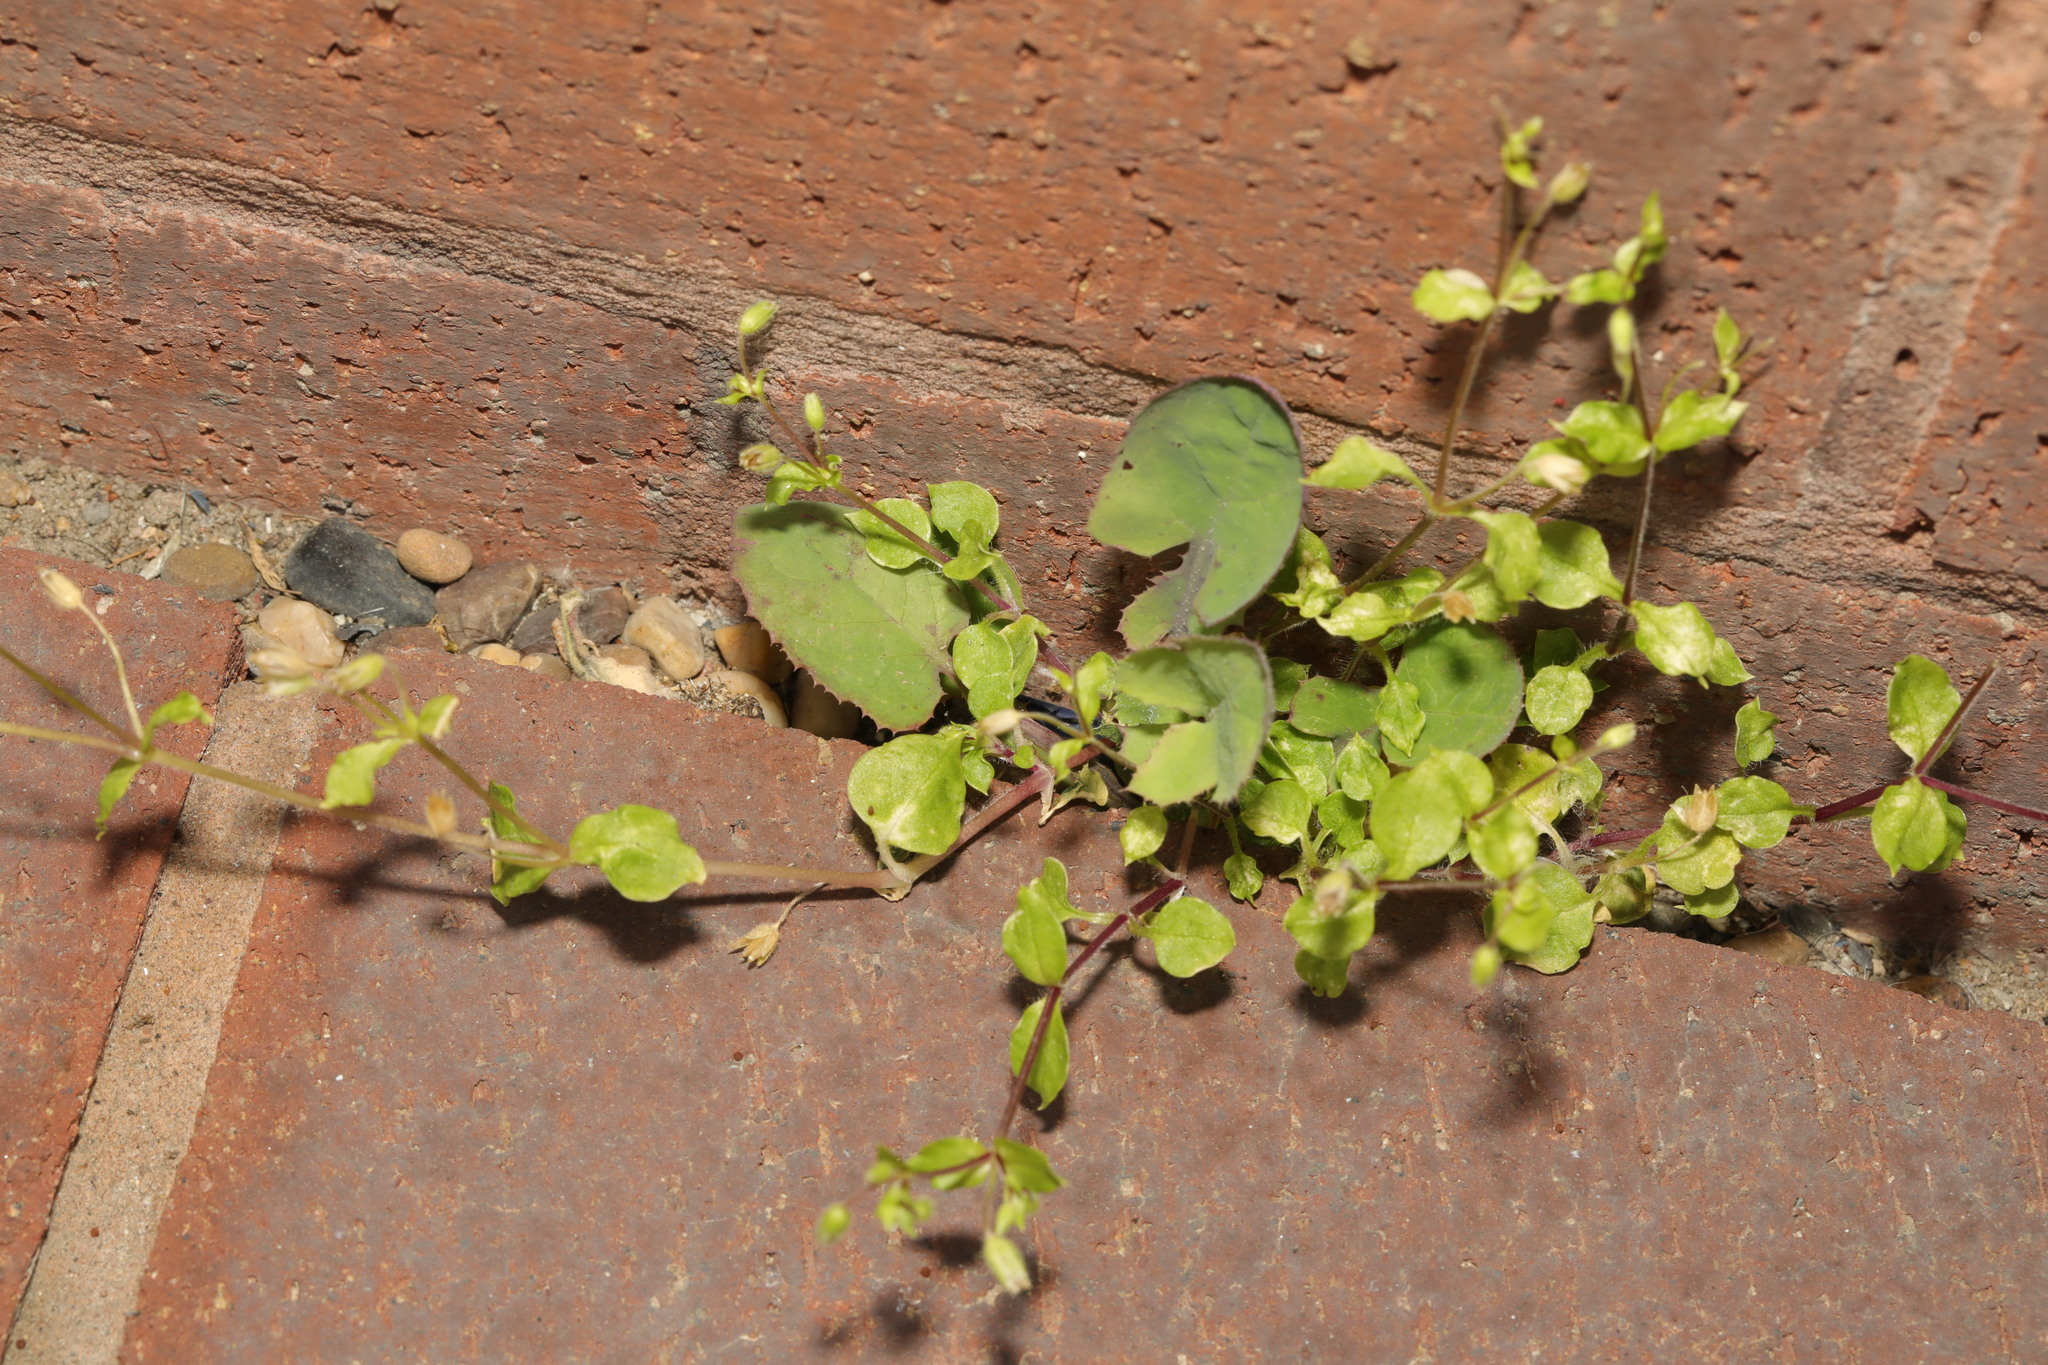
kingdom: Plantae
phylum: Tracheophyta
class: Magnoliopsida
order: Caryophyllales
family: Caryophyllaceae
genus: Stellaria
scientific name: Stellaria media
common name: Common chickweed
